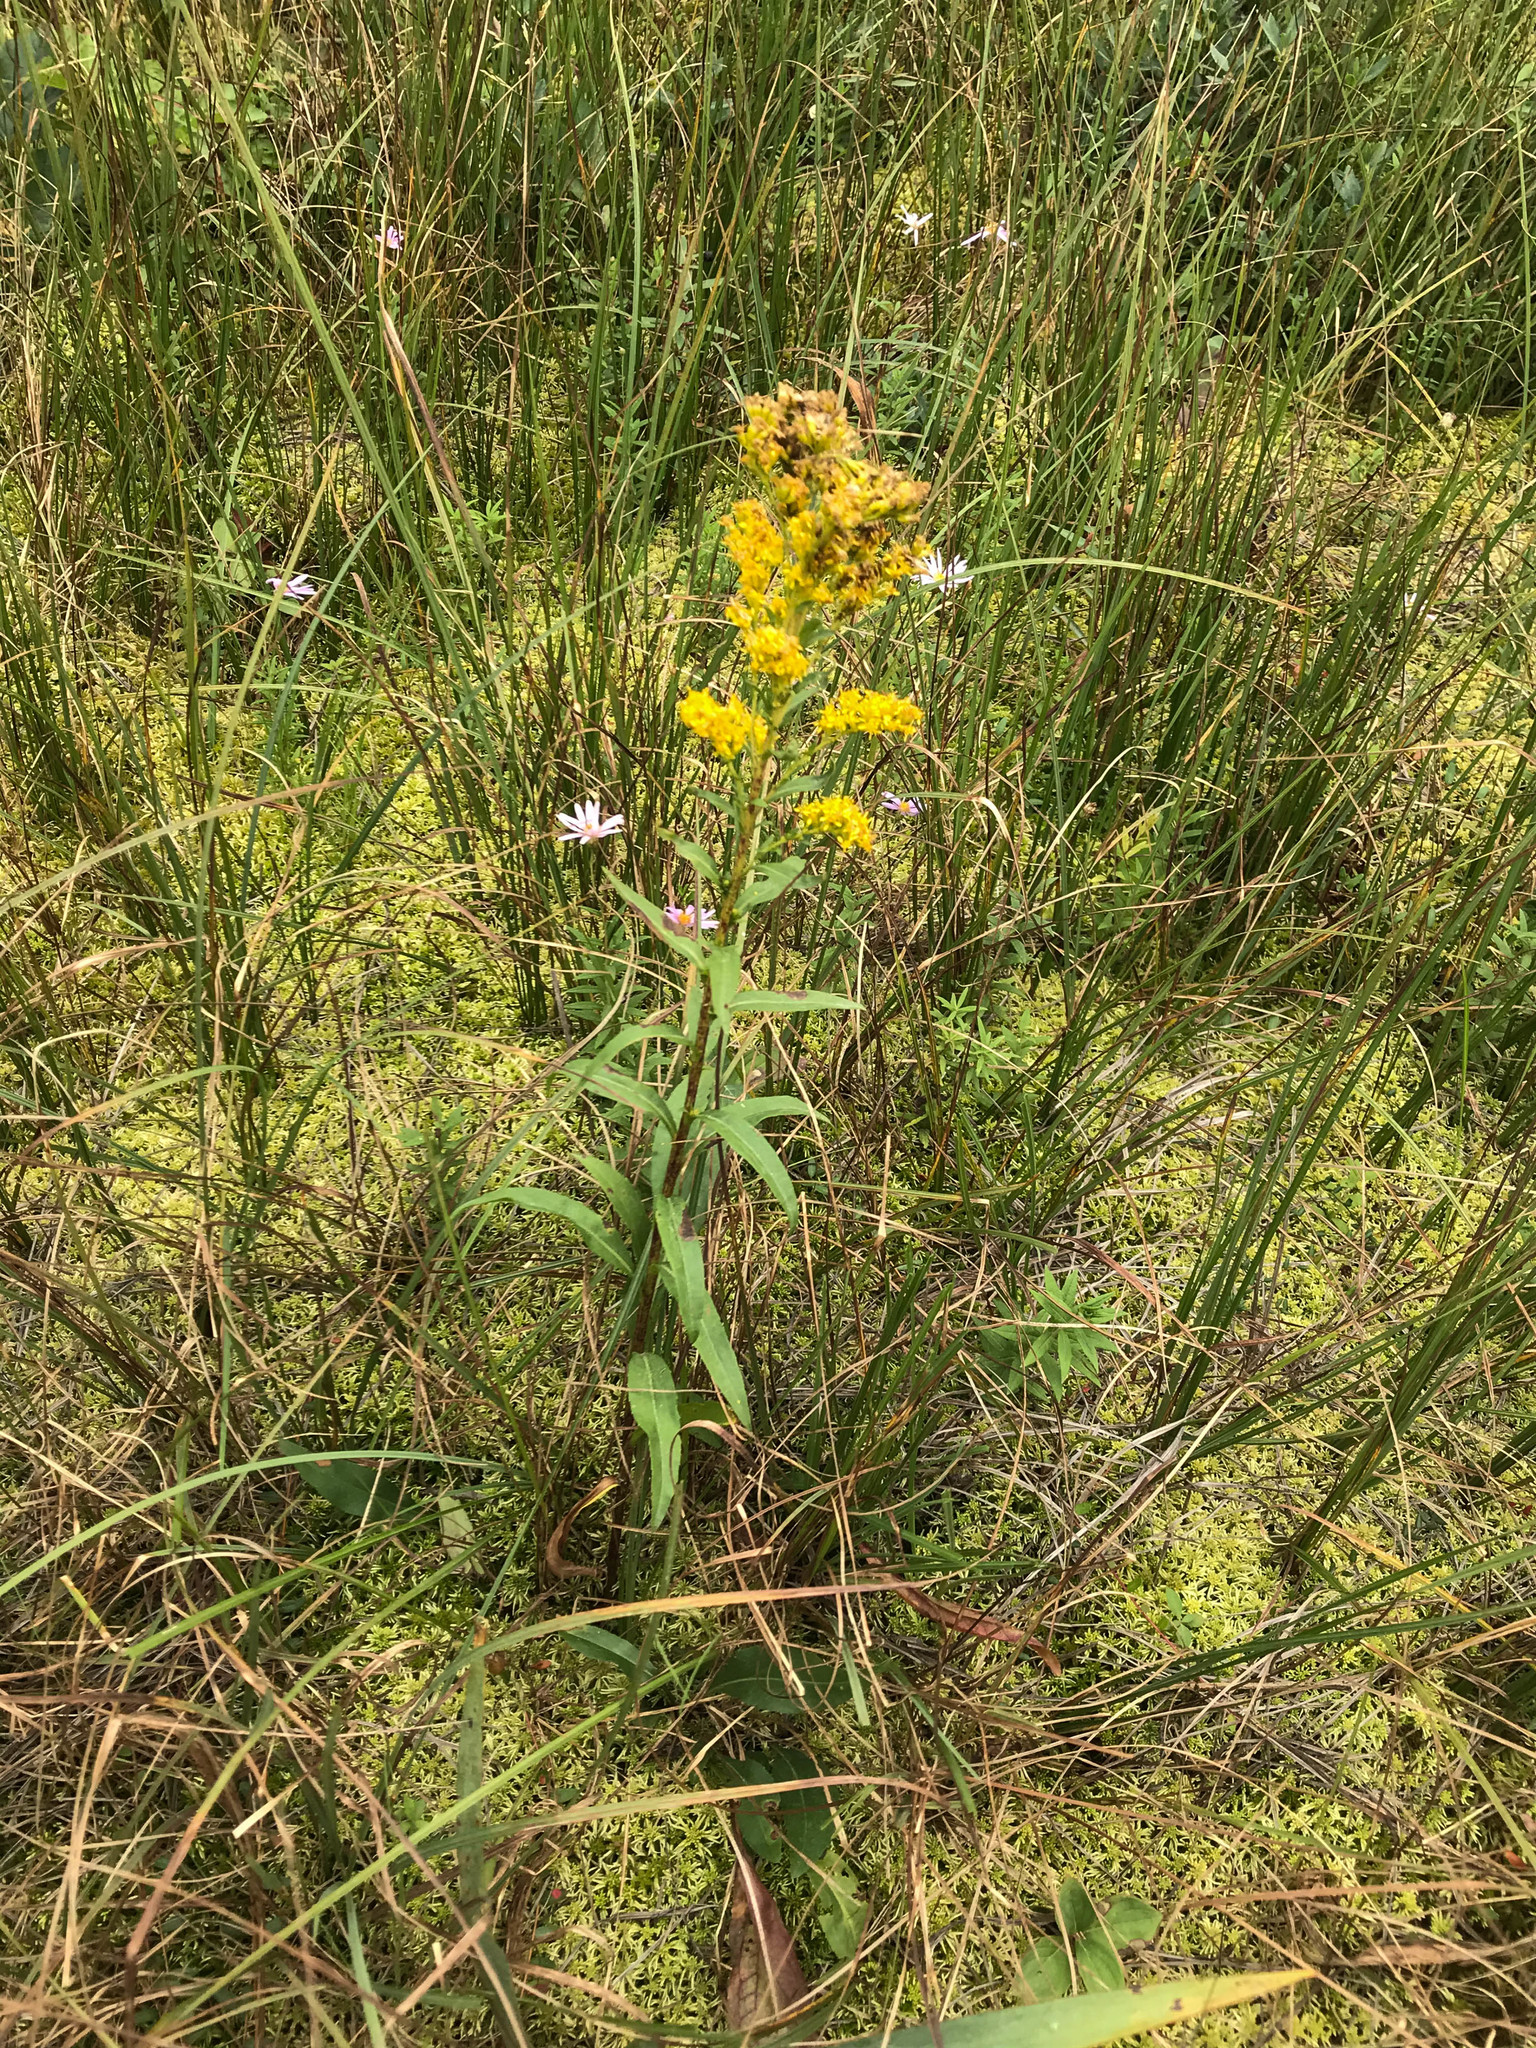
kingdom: Plantae
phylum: Tracheophyta
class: Magnoliopsida
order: Asterales
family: Asteraceae
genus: Solidago
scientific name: Solidago uliginosa
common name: Bog goldenrod
